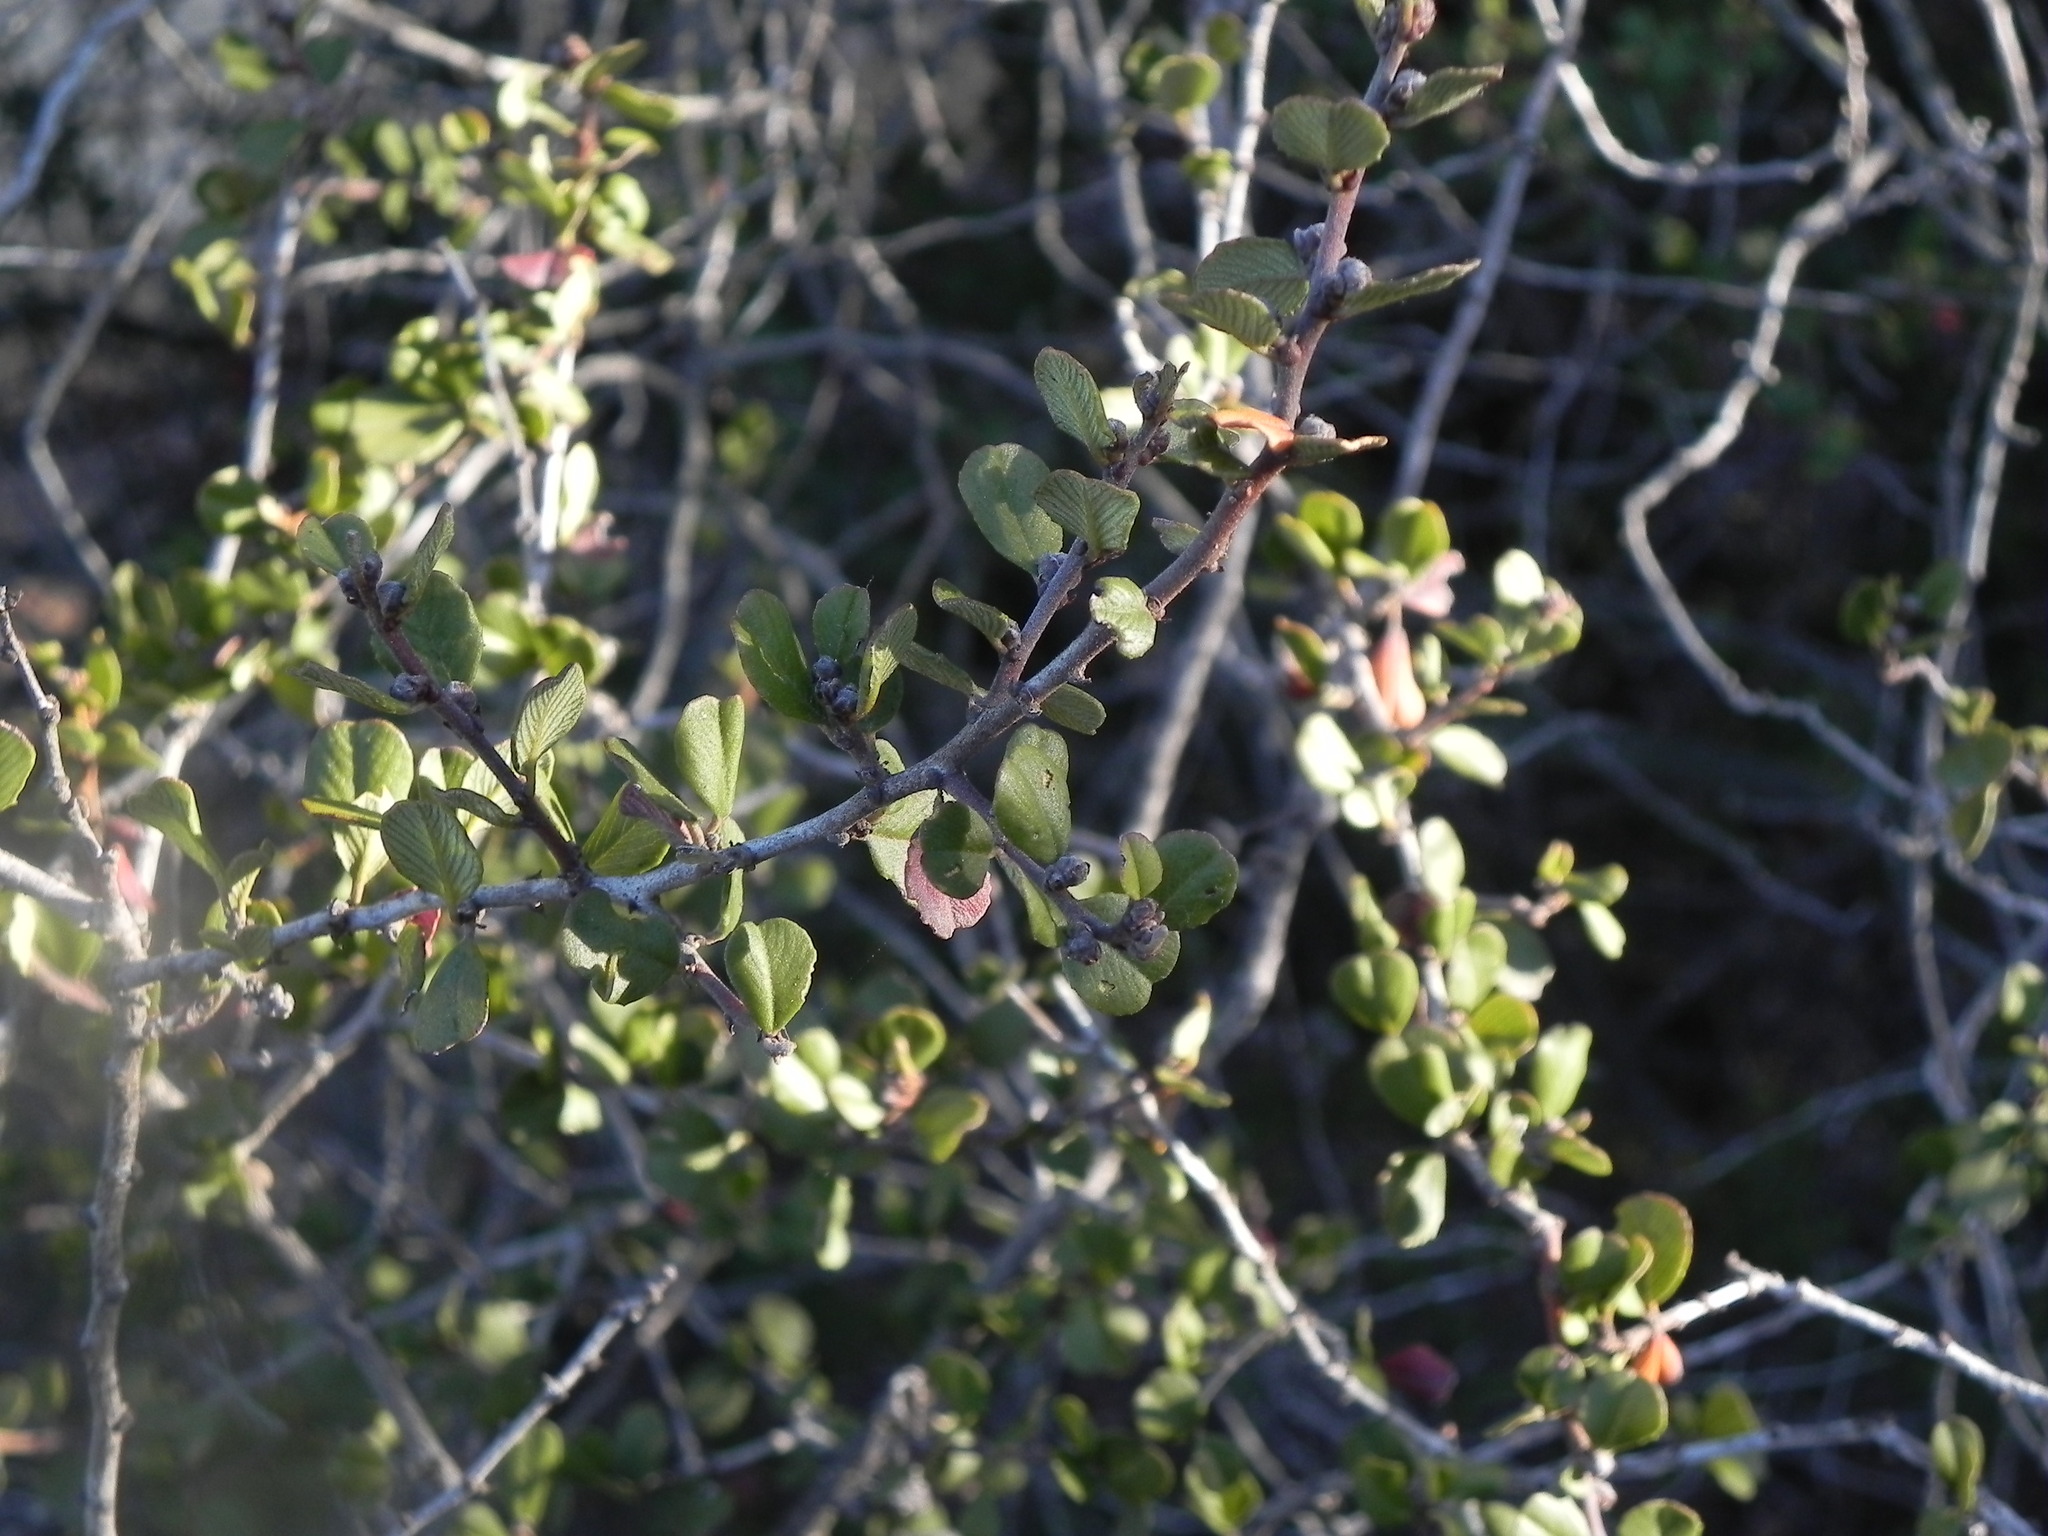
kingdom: Plantae
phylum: Tracheophyta
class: Magnoliopsida
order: Rosales
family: Rhamnaceae
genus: Ceanothus
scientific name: Ceanothus verrucosus
